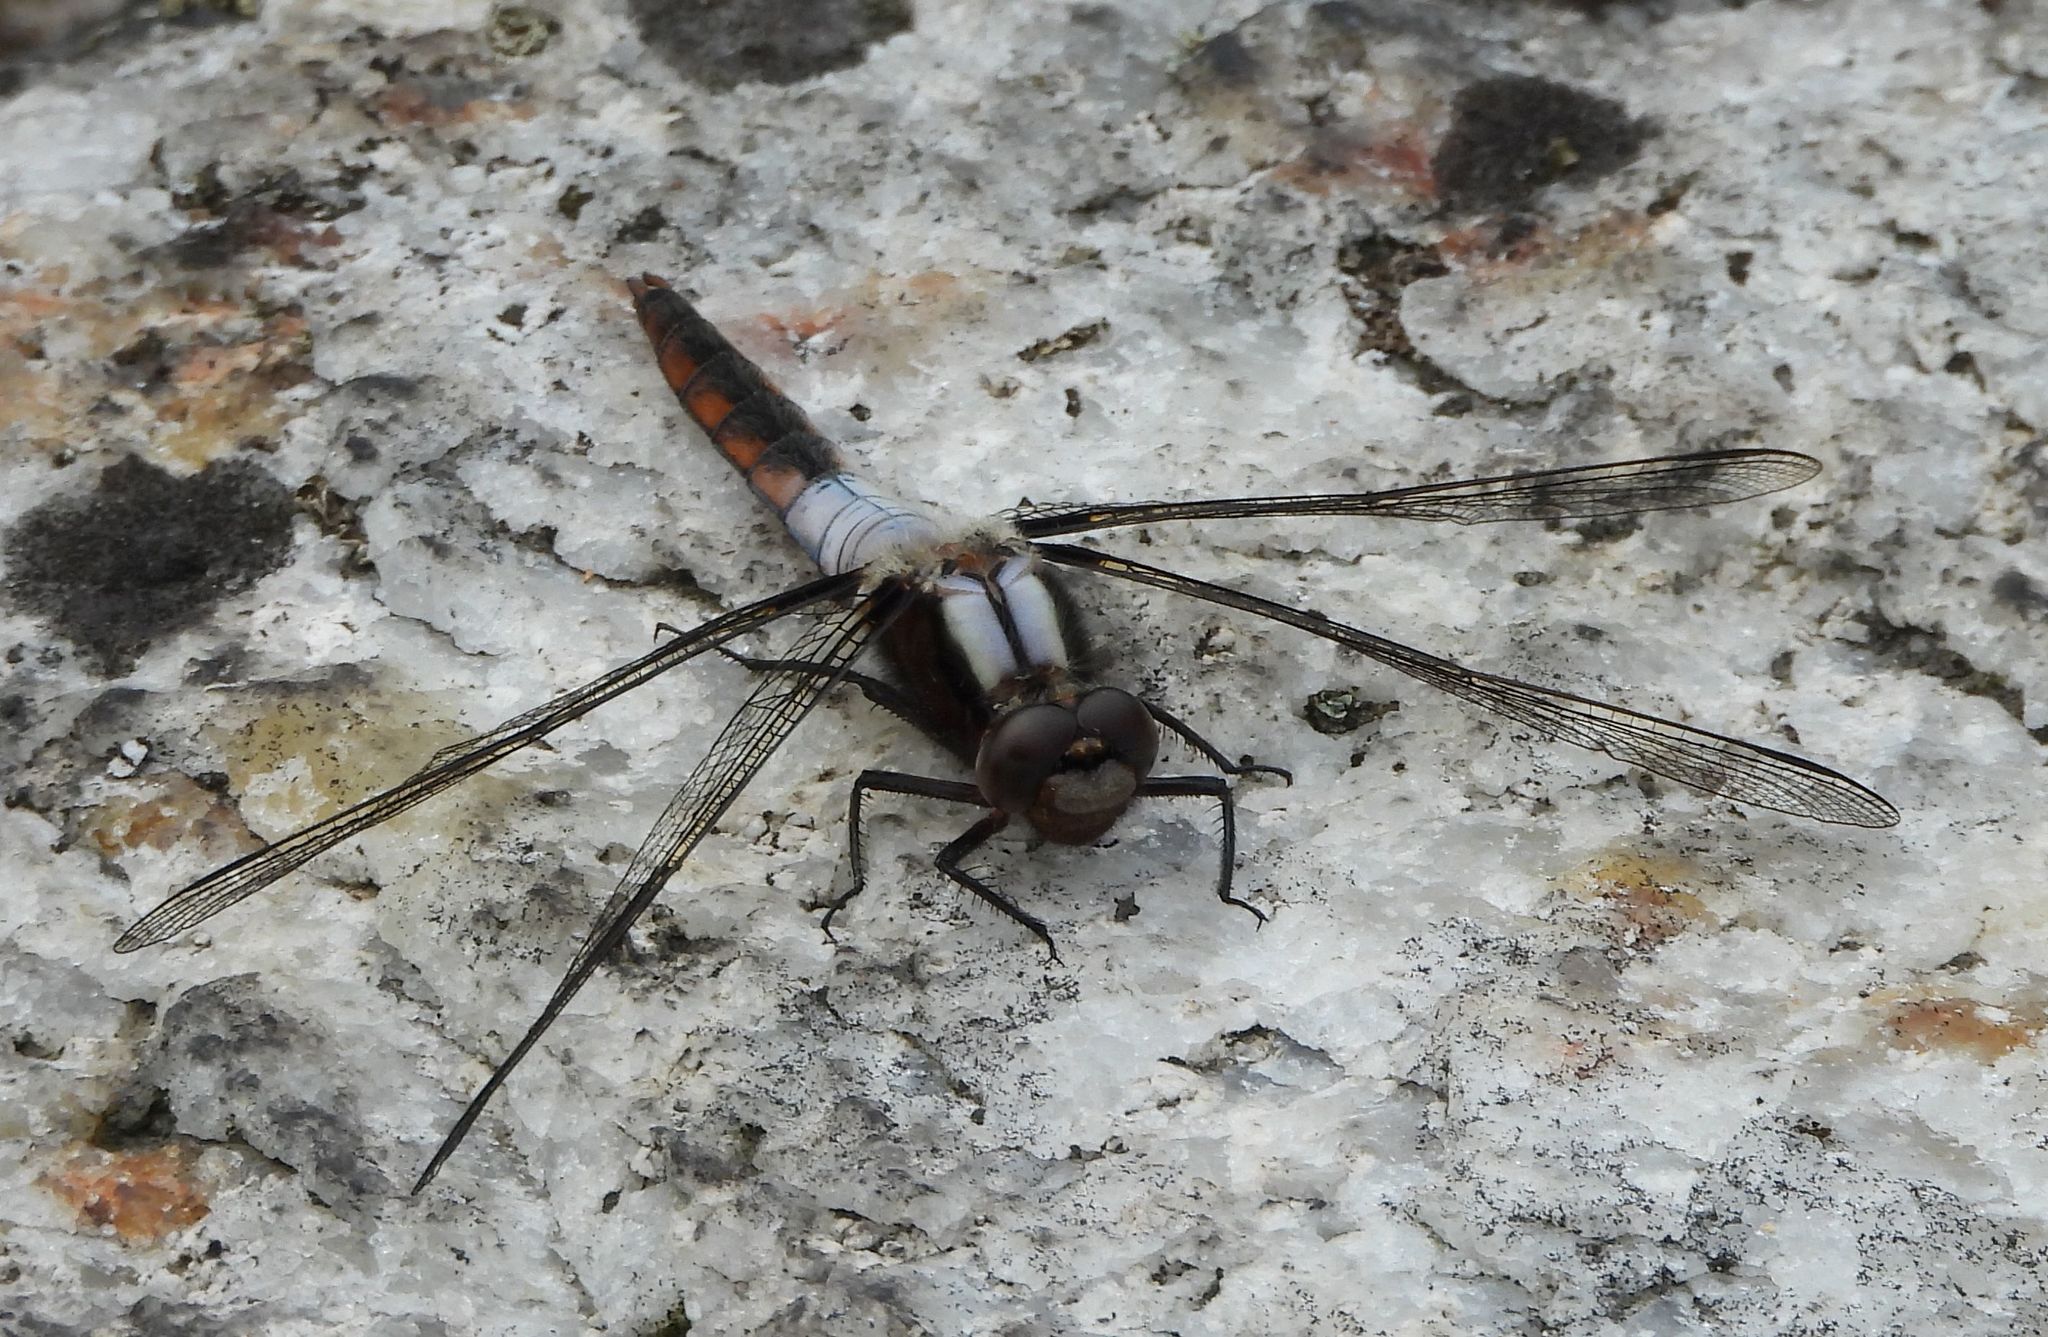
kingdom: Animalia
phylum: Arthropoda
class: Insecta
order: Odonata
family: Libellulidae
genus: Ladona
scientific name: Ladona julia
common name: Chalk-fronted corporal
